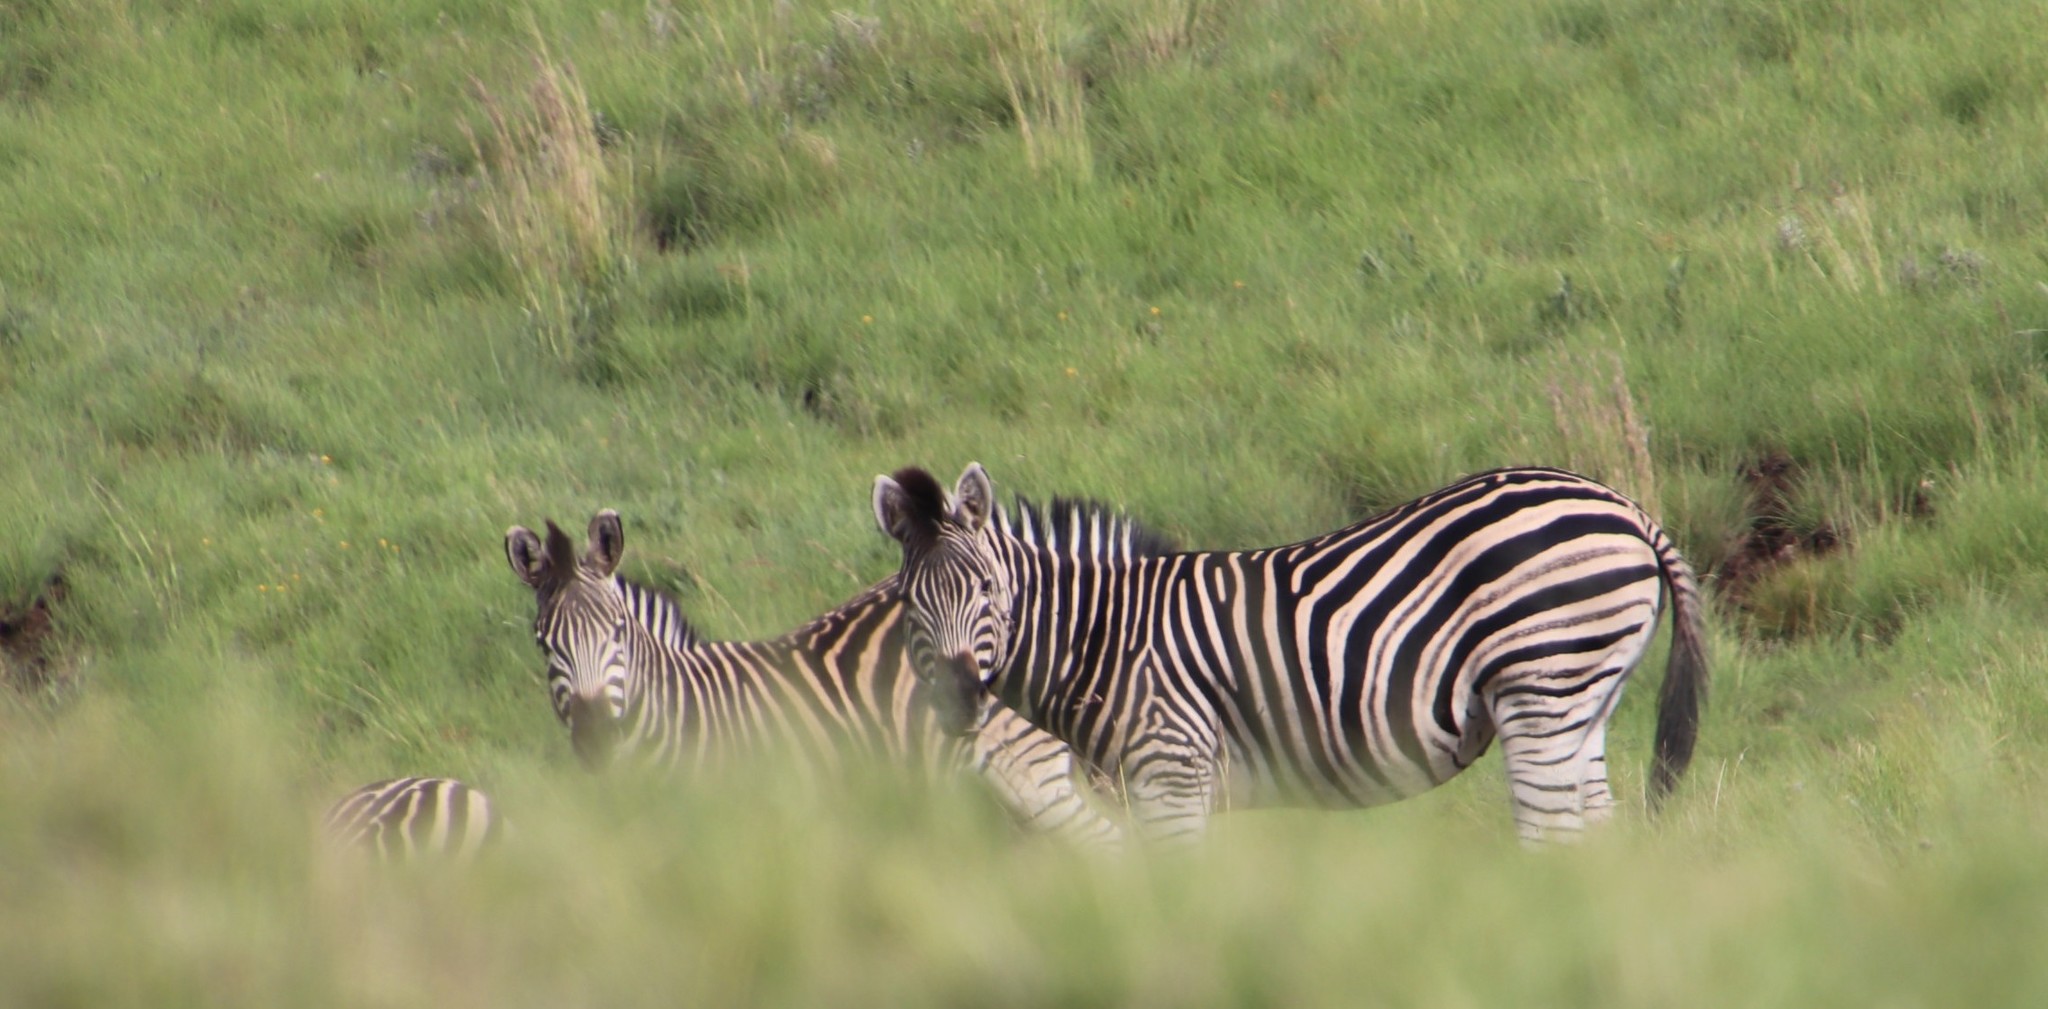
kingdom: Animalia
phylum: Chordata
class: Mammalia
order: Perissodactyla
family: Equidae
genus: Equus
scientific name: Equus quagga
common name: Plains zebra
